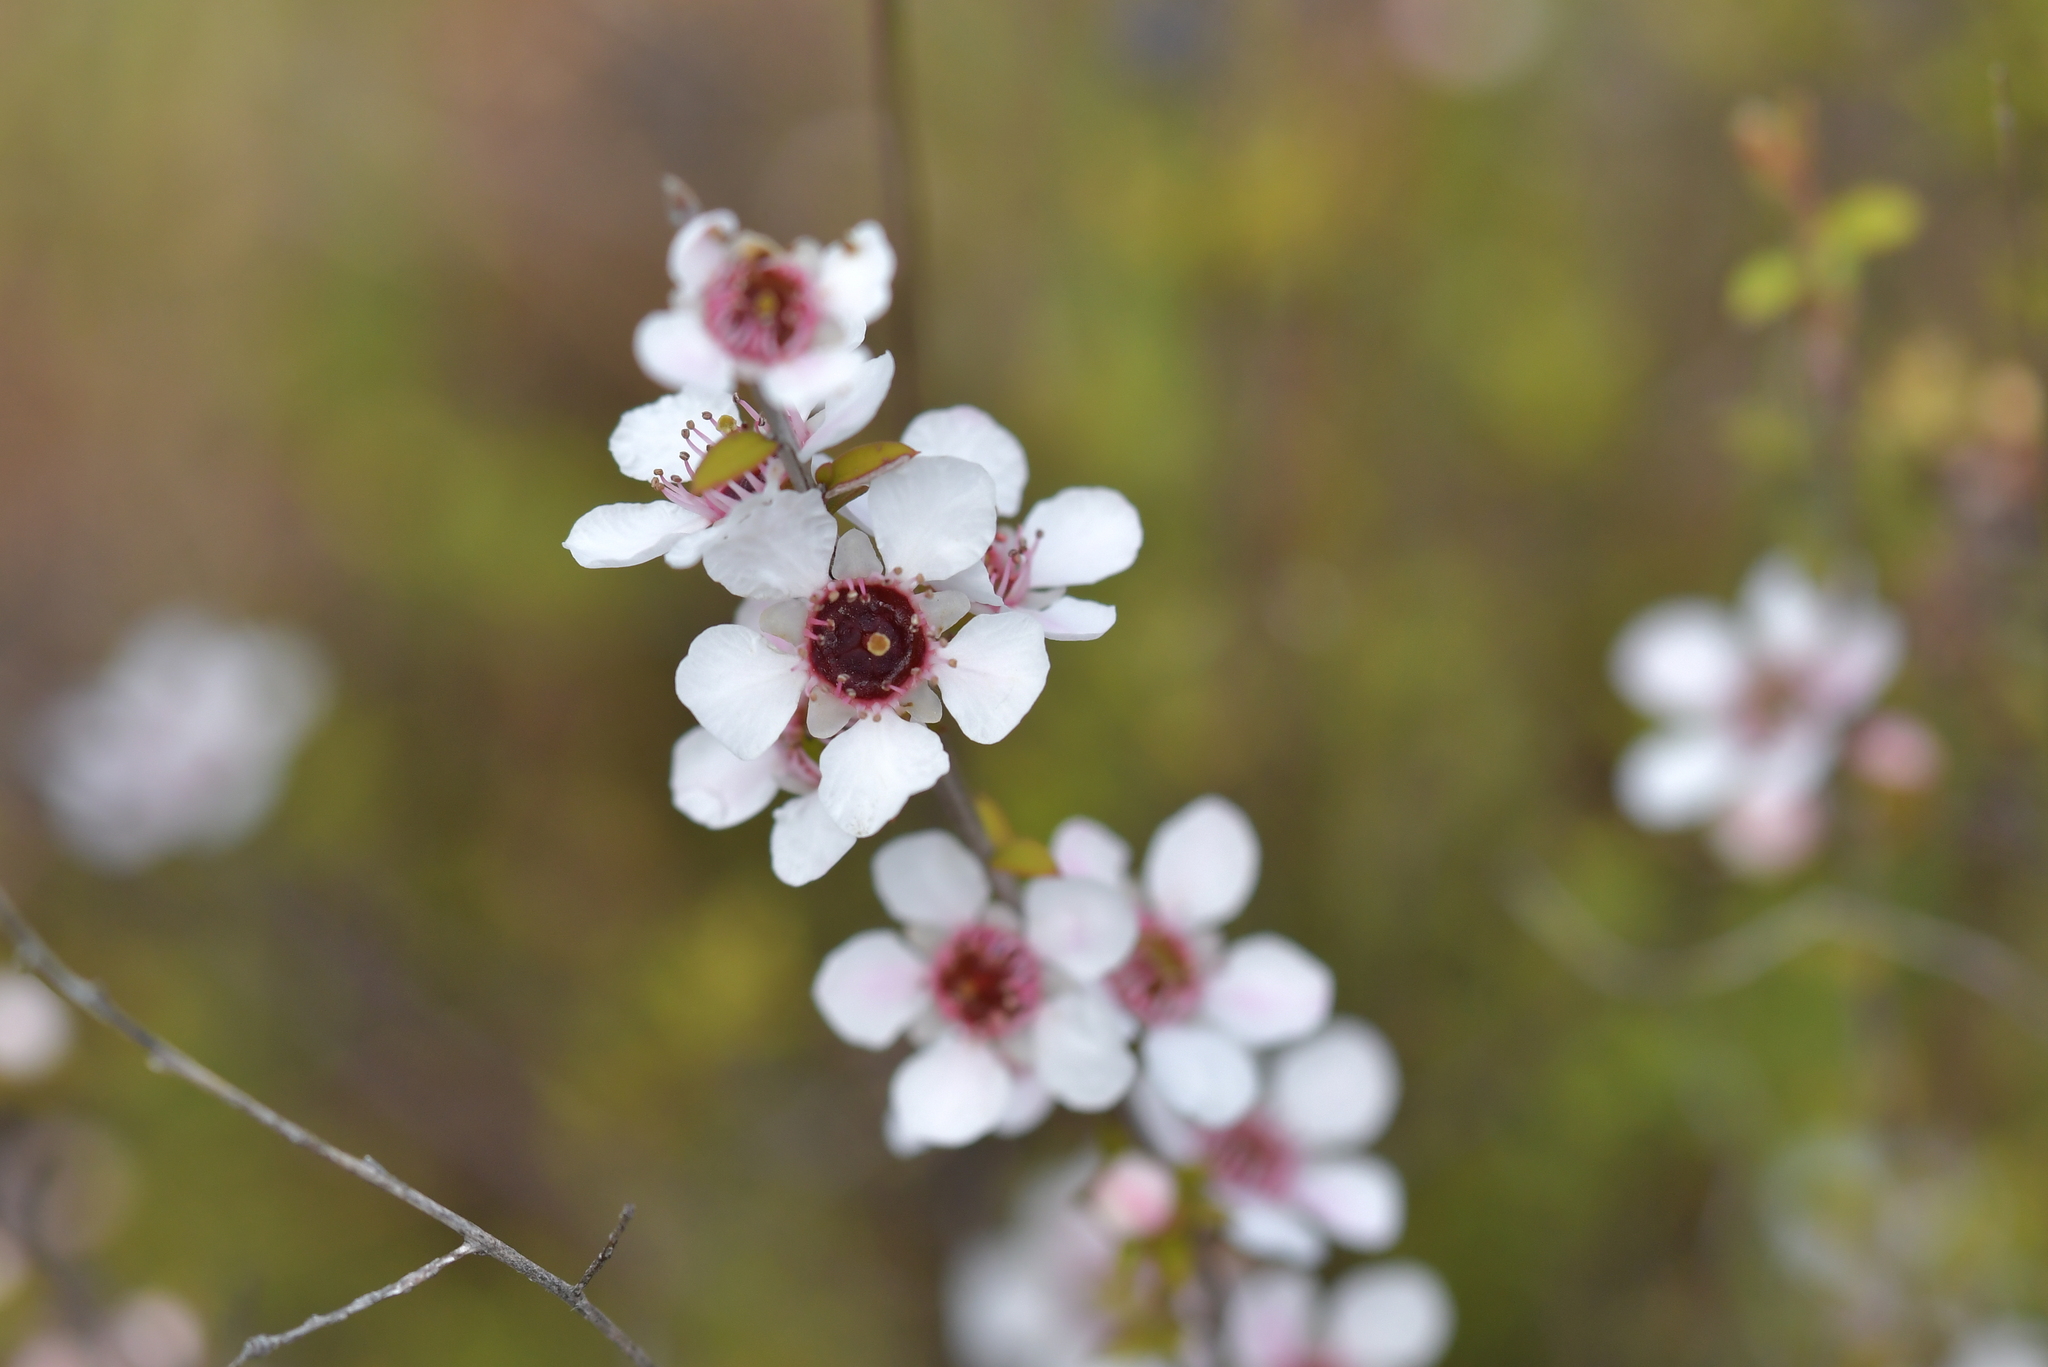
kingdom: Plantae
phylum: Tracheophyta
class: Magnoliopsida
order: Myrtales
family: Myrtaceae
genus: Leptospermum
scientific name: Leptospermum scoparium
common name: Broom tea-tree
